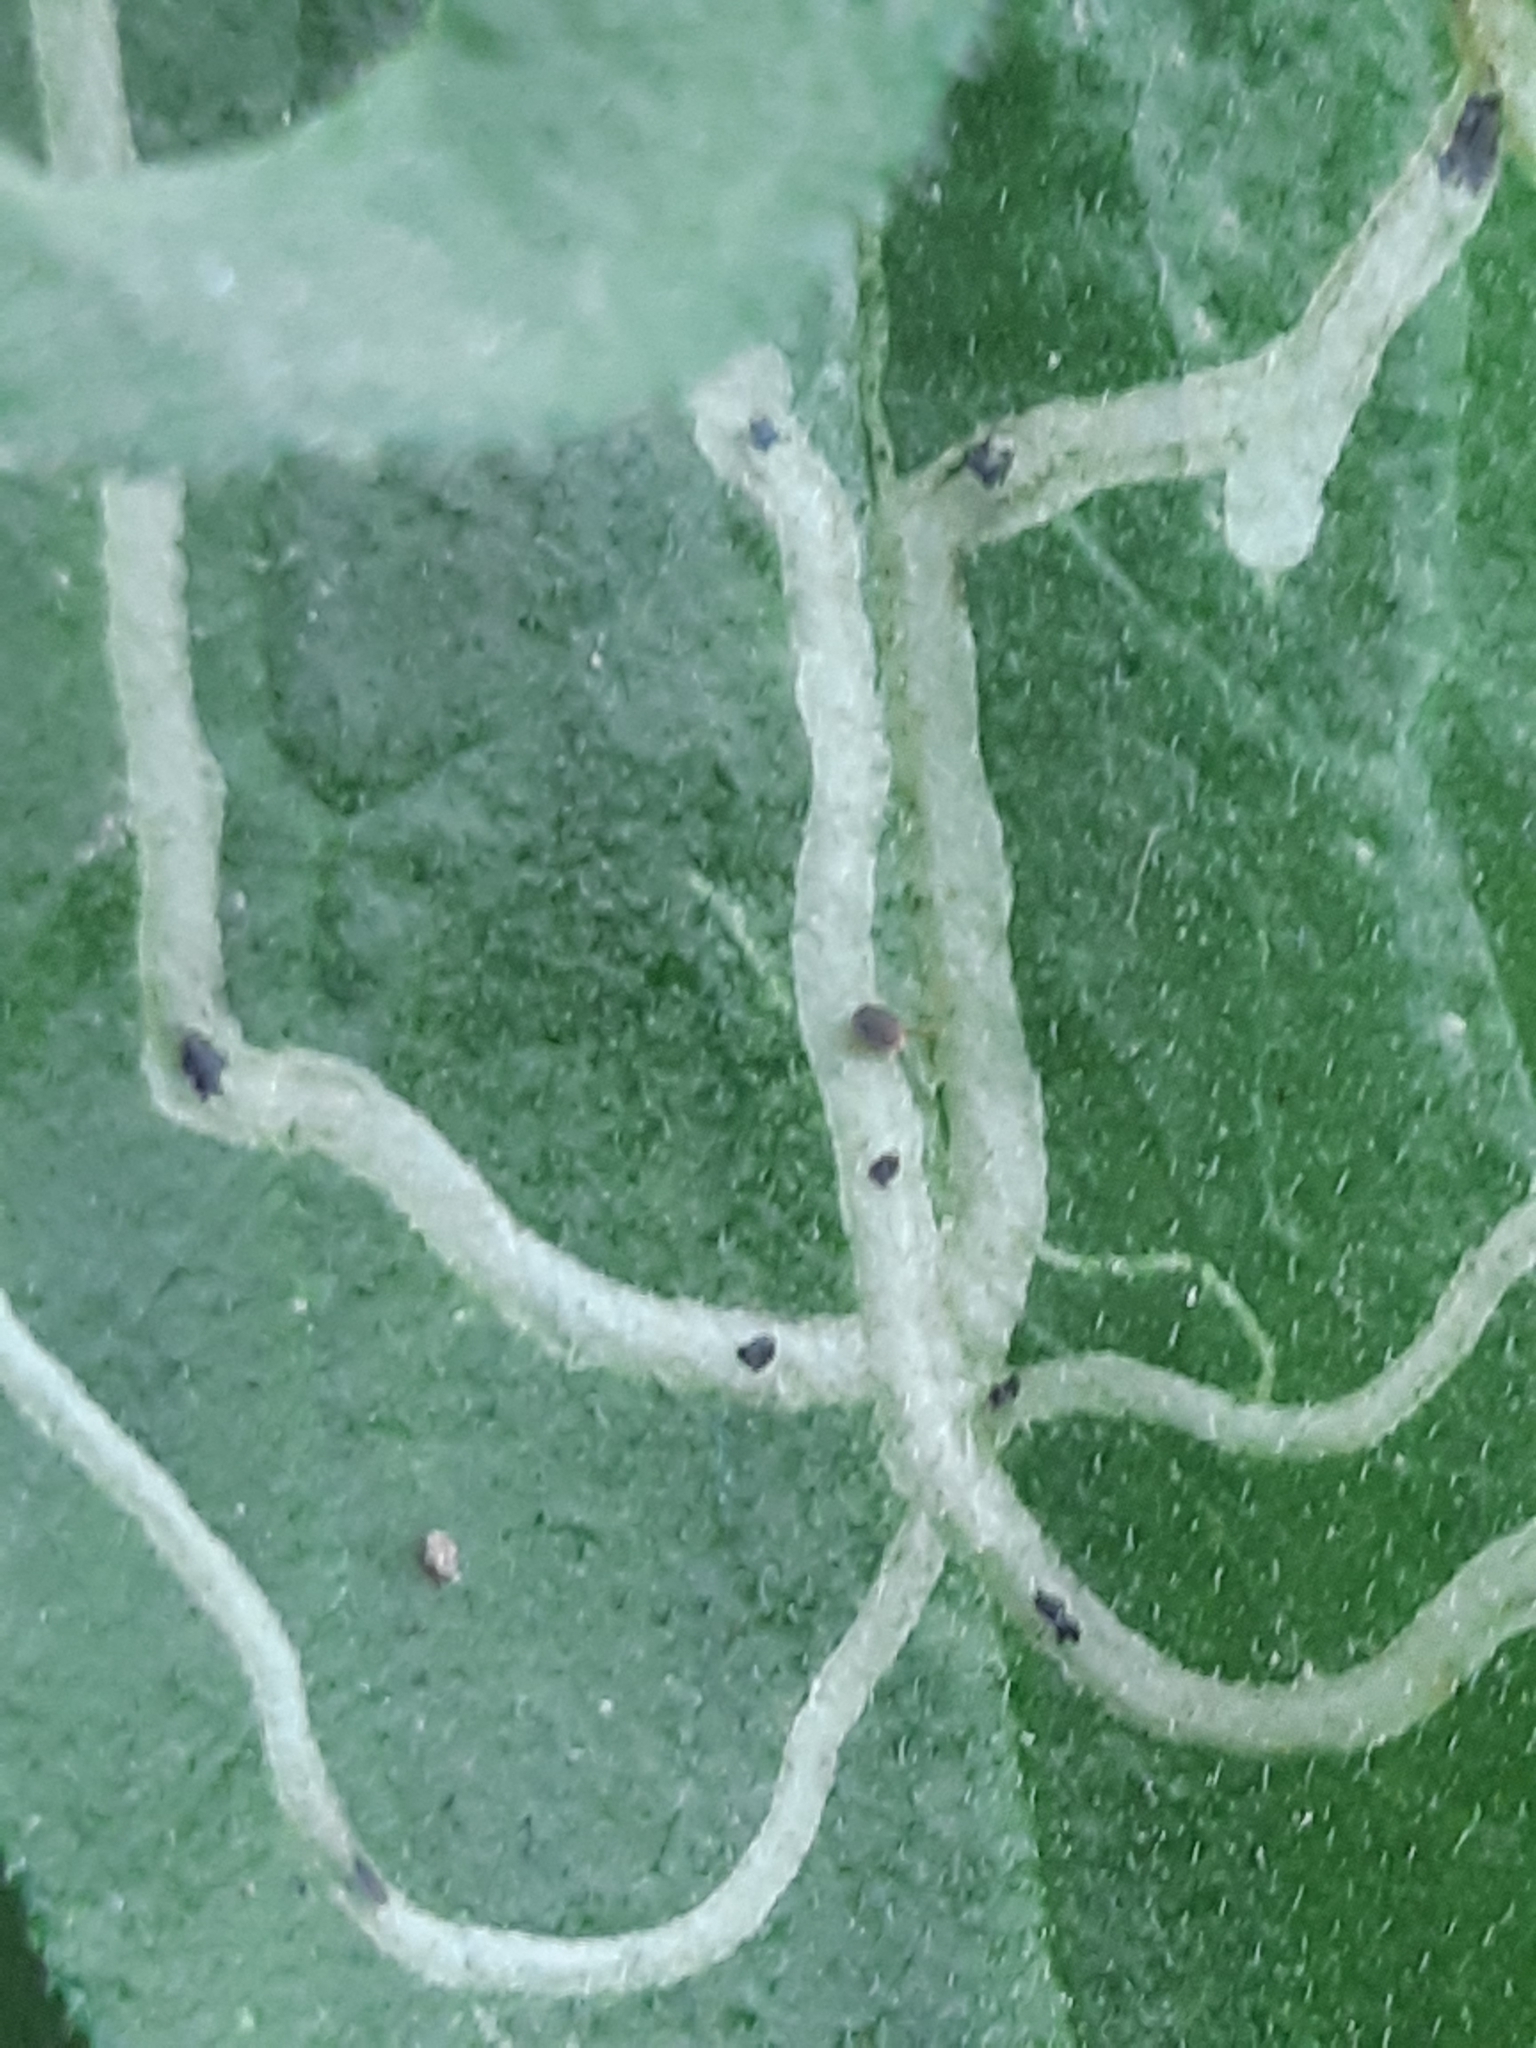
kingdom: Animalia
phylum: Arthropoda
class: Insecta
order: Diptera
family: Agromyzidae
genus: Ophiomyia
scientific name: Ophiomyia maura
